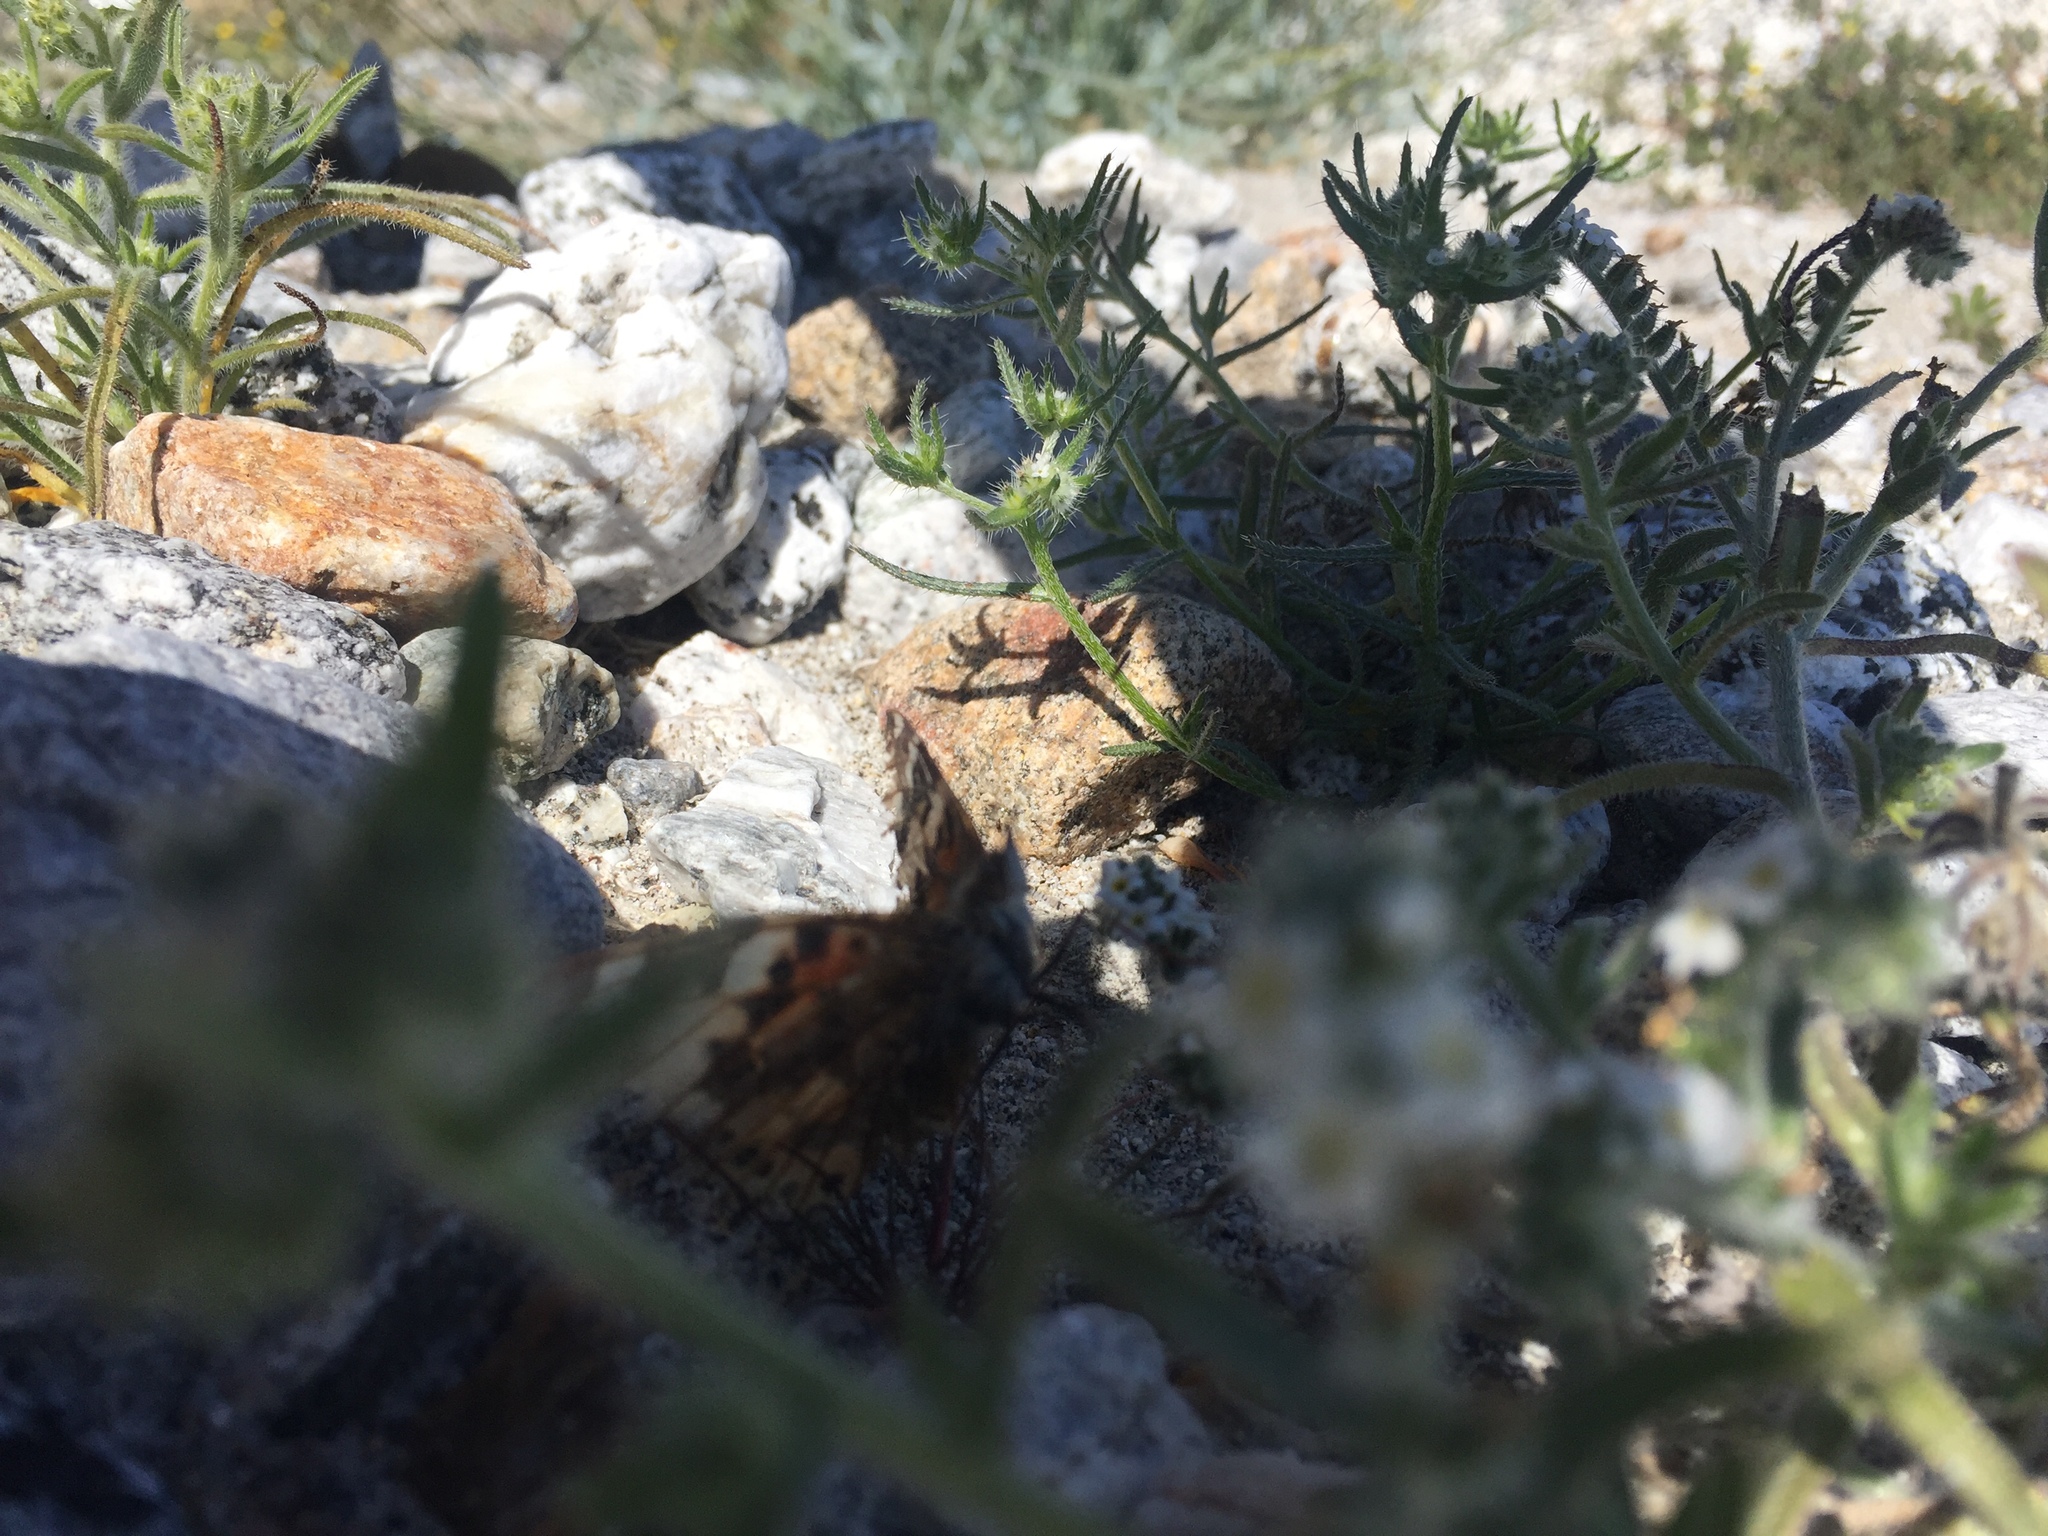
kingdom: Animalia
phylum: Arthropoda
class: Insecta
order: Lepidoptera
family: Nymphalidae
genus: Vanessa
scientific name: Vanessa cardui
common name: Painted lady
